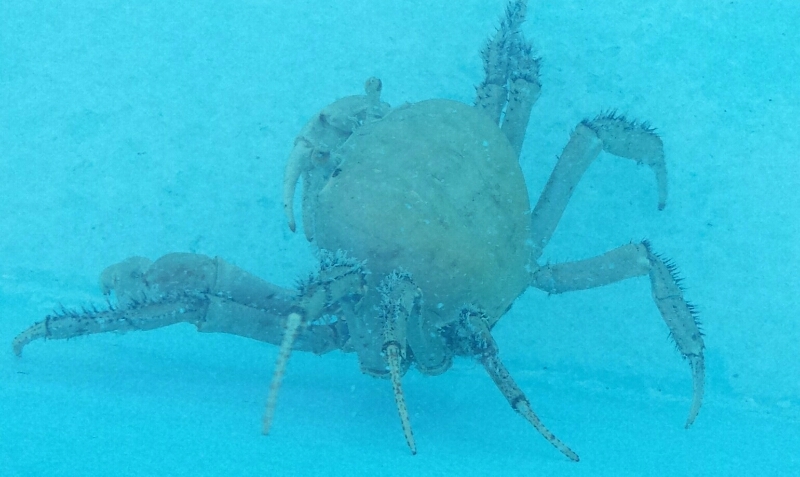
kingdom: Animalia
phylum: Arthropoda
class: Malacostraca
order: Decapoda
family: Gecarcinidae
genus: Cardisoma
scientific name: Cardisoma guanhumi
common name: Great land crab
